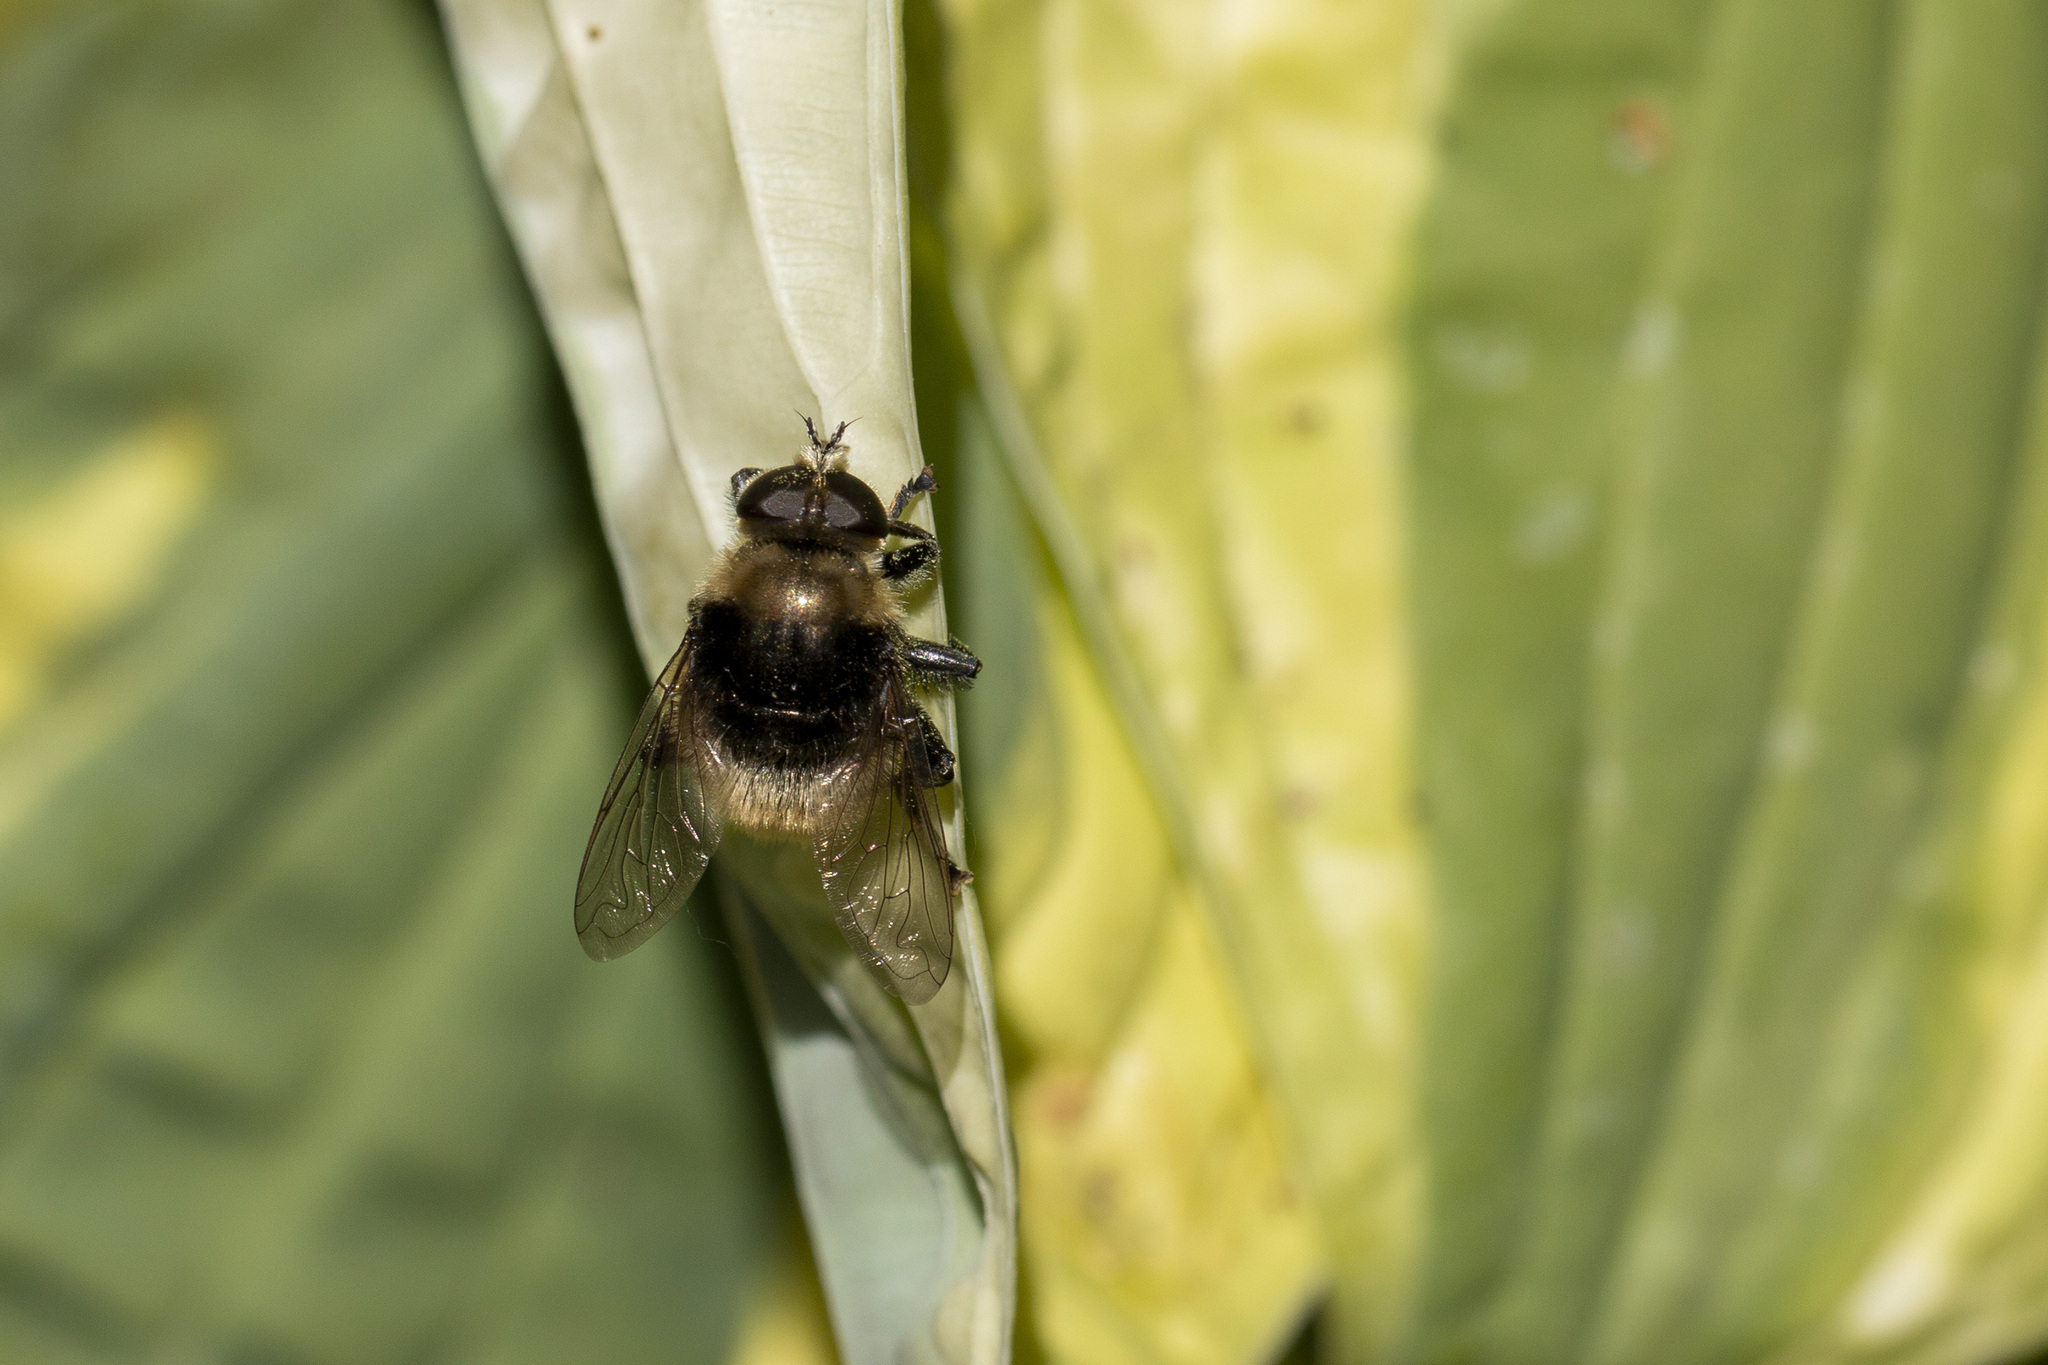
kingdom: Animalia
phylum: Arthropoda
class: Insecta
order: Diptera
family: Syrphidae
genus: Merodon
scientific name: Merodon equestris
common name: Greater bulb-fly
